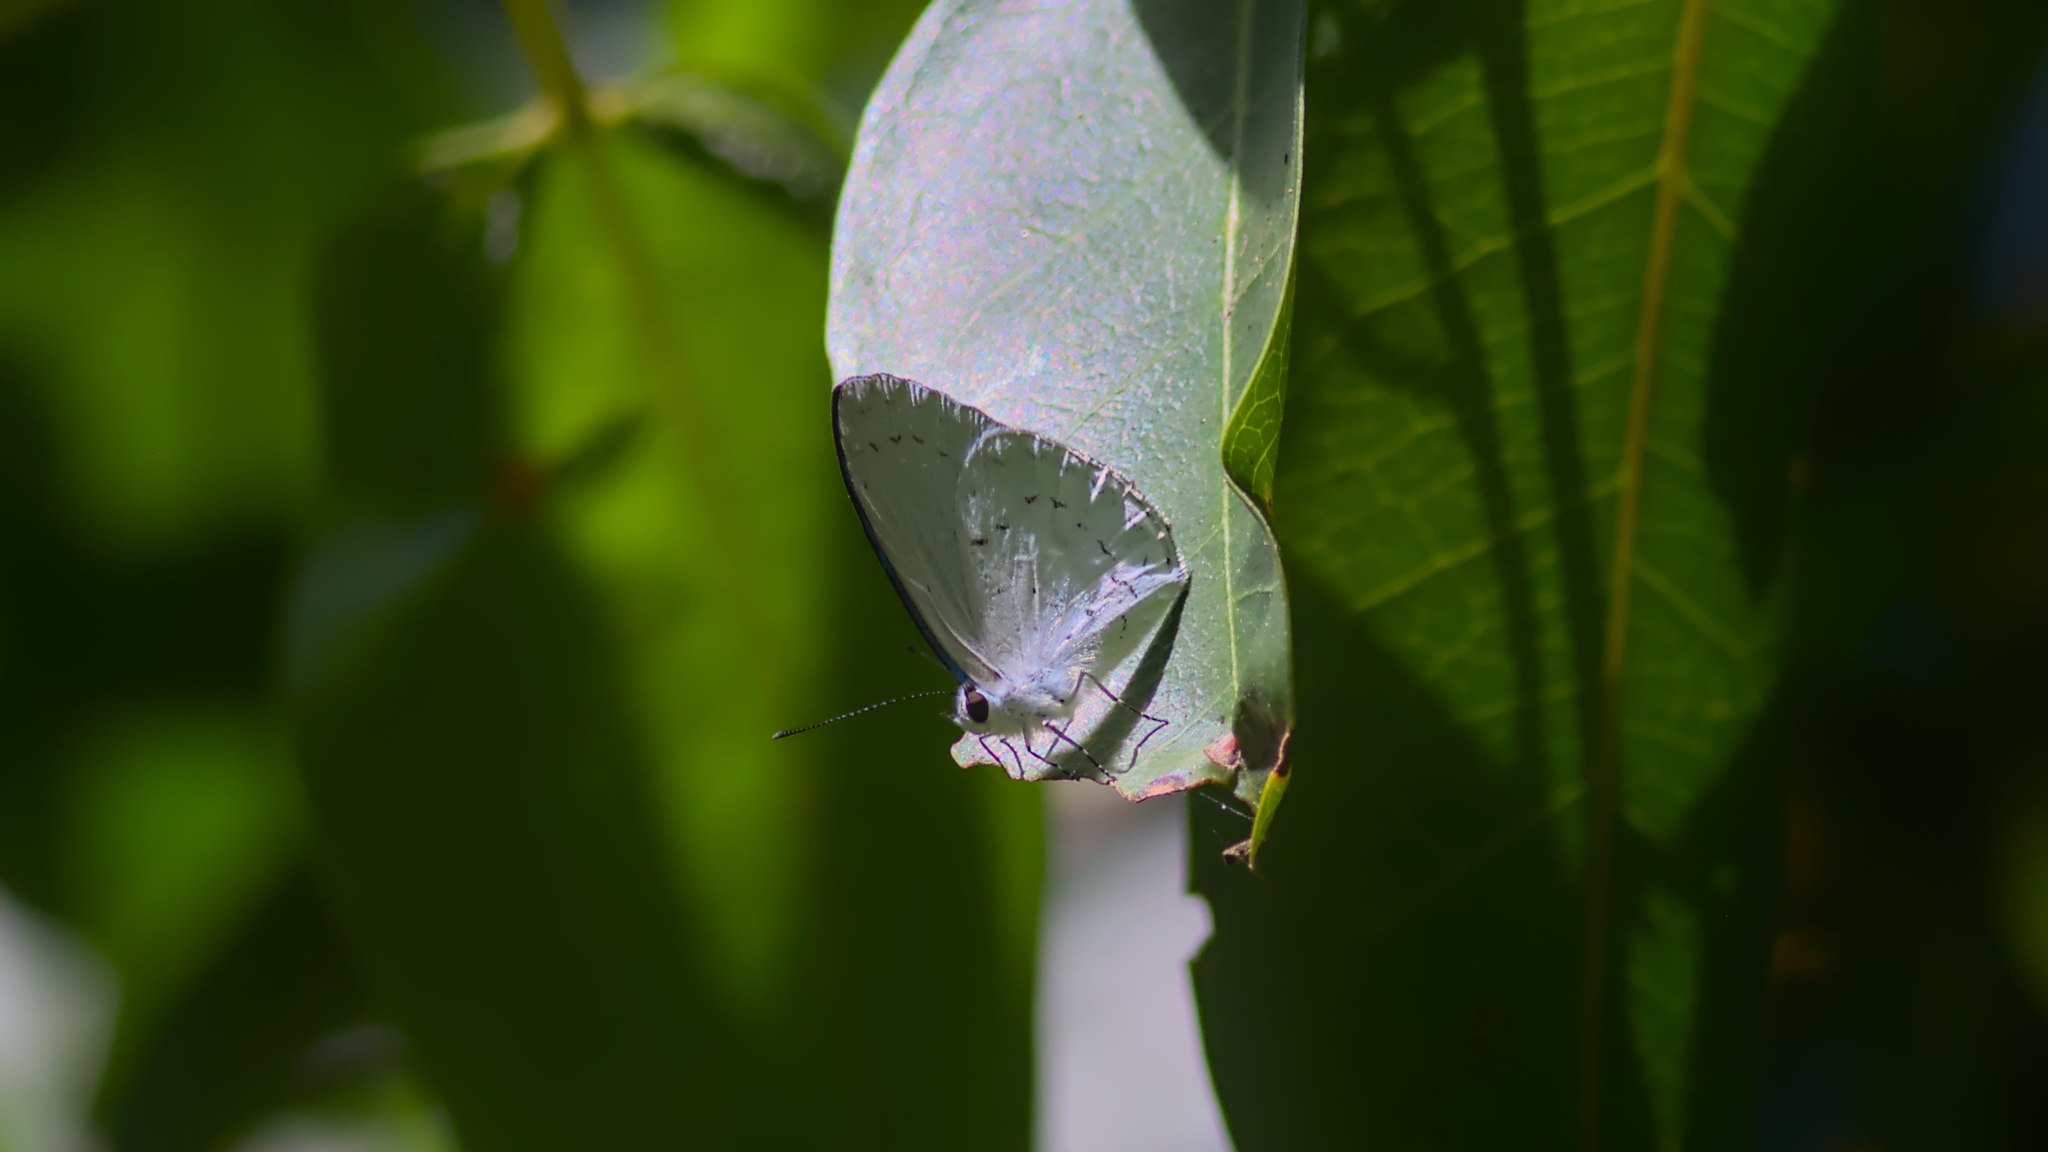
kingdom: Animalia
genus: Eirmocides
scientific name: Eirmocides
